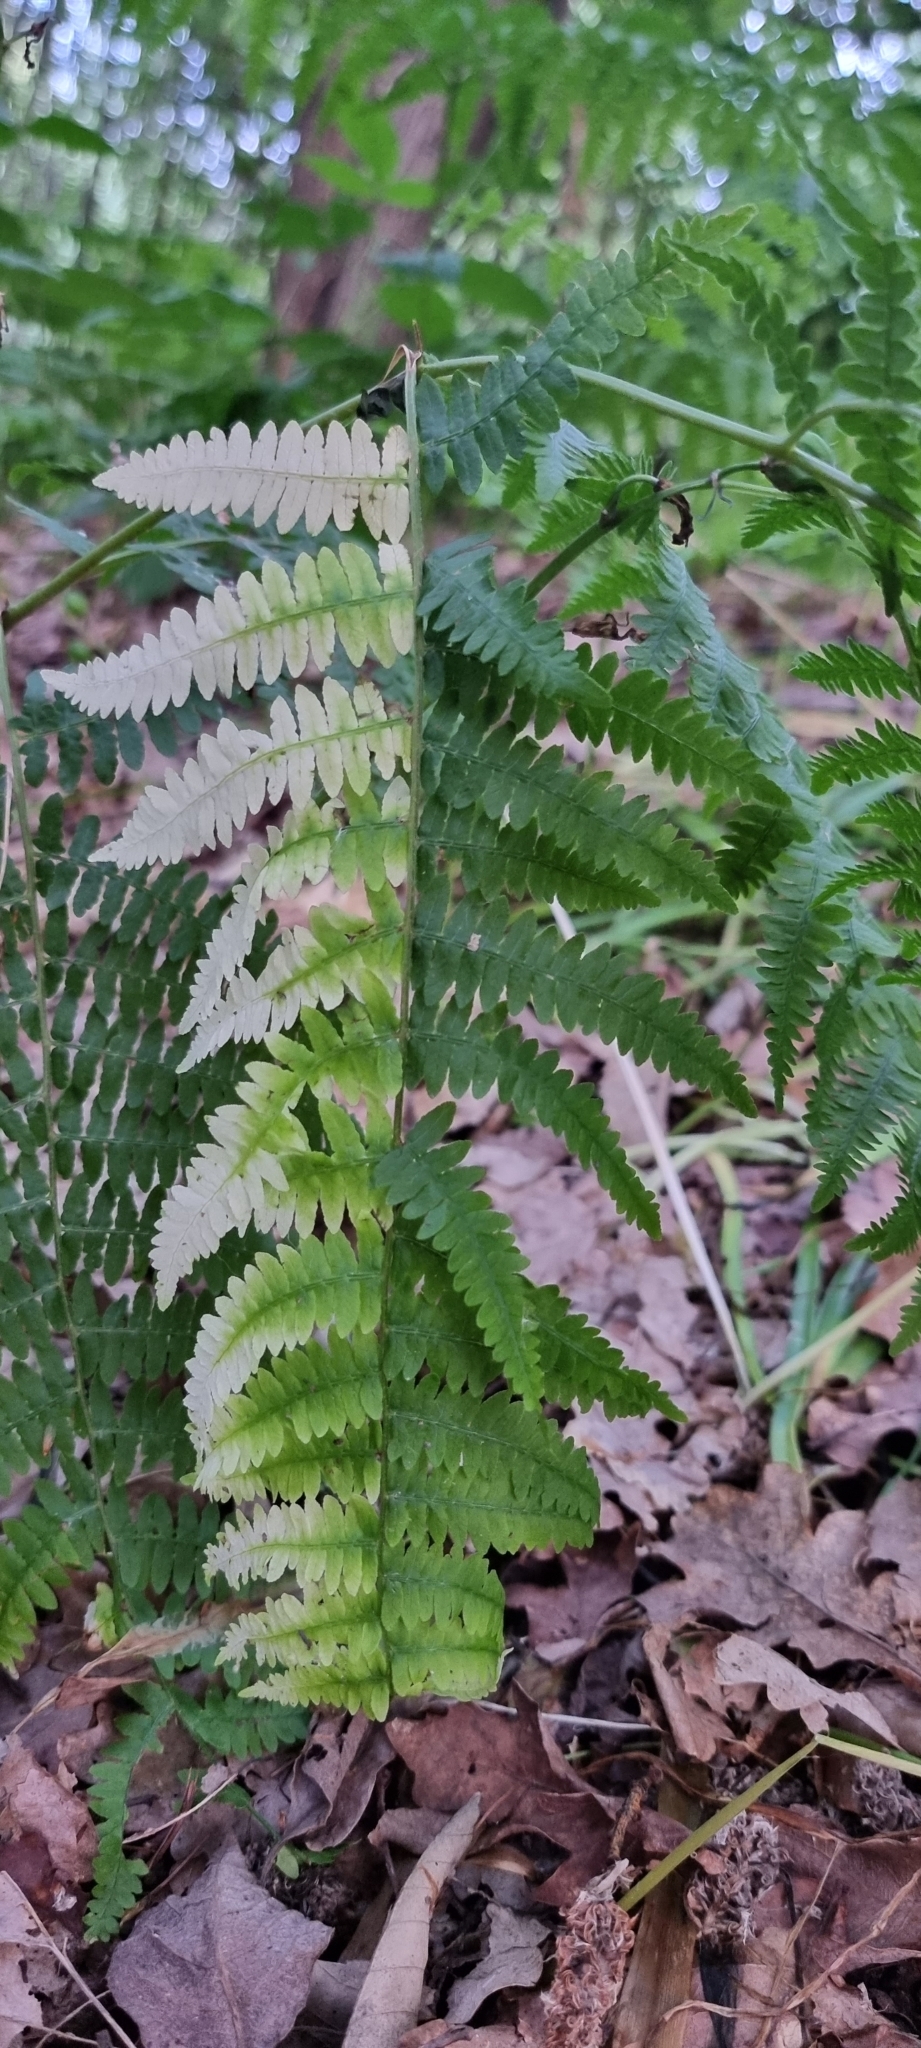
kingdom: Plantae
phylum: Tracheophyta
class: Polypodiopsida
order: Polypodiales
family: Dennstaedtiaceae
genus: Pteridium
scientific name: Pteridium aquilinum
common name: Bracken
